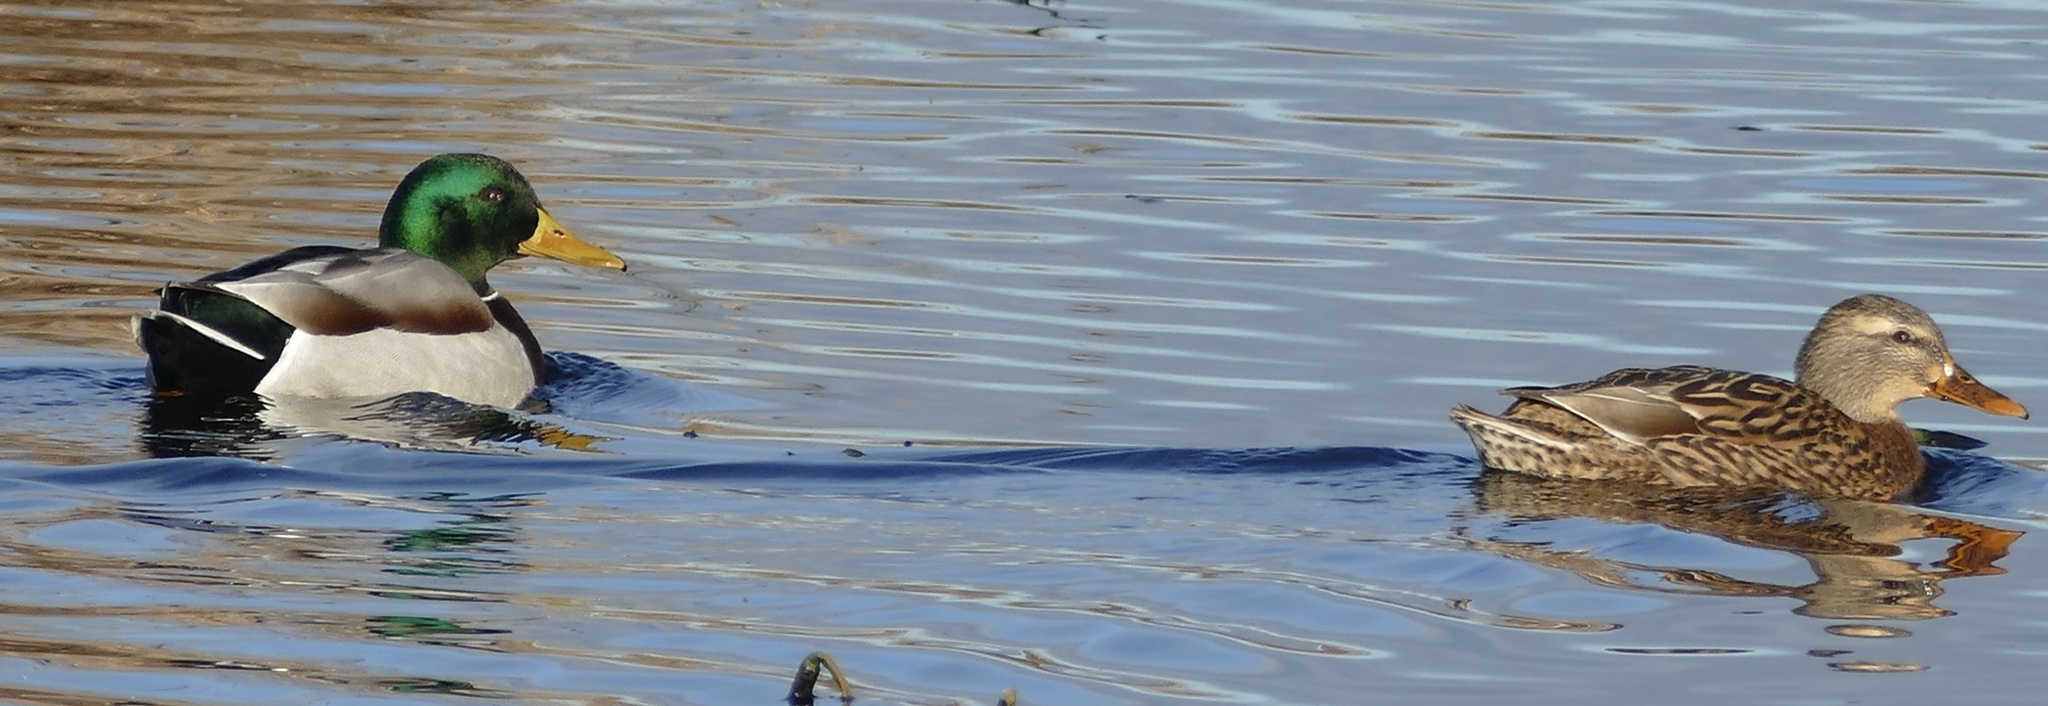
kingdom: Animalia
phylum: Chordata
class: Aves
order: Anseriformes
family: Anatidae
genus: Anas
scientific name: Anas platyrhynchos
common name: Mallard
